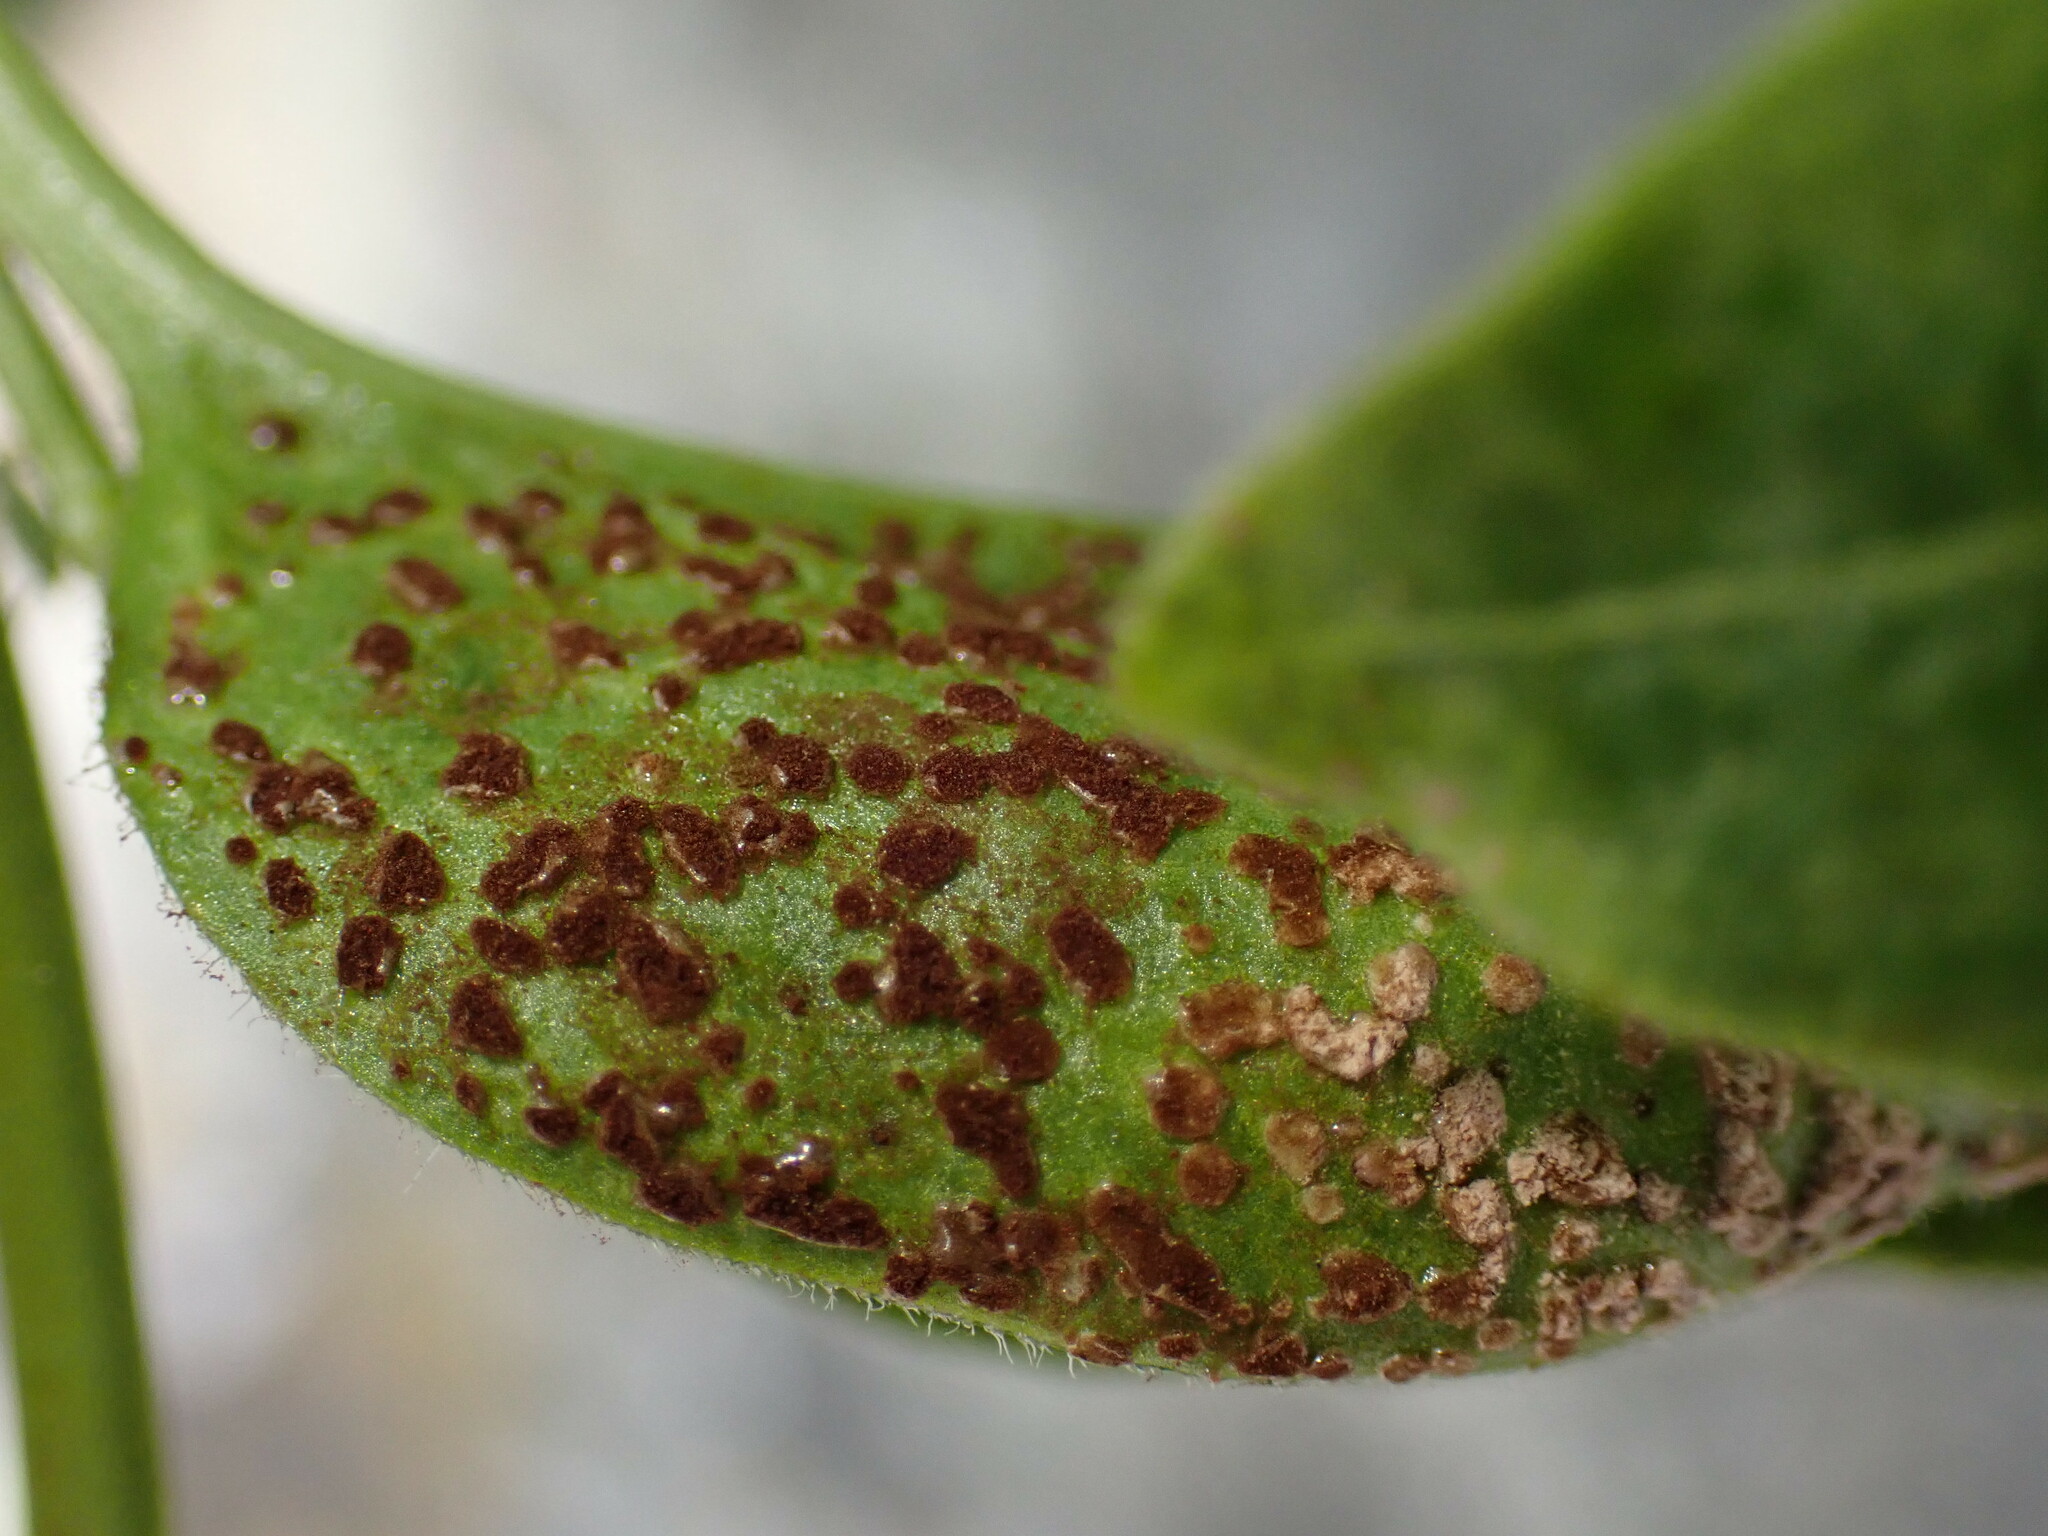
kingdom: Fungi
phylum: Basidiomycota
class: Pucciniomycetes
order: Pucciniales
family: Pucciniaceae
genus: Puccinia
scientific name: Puccinia vincae
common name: Periwinkle rust
